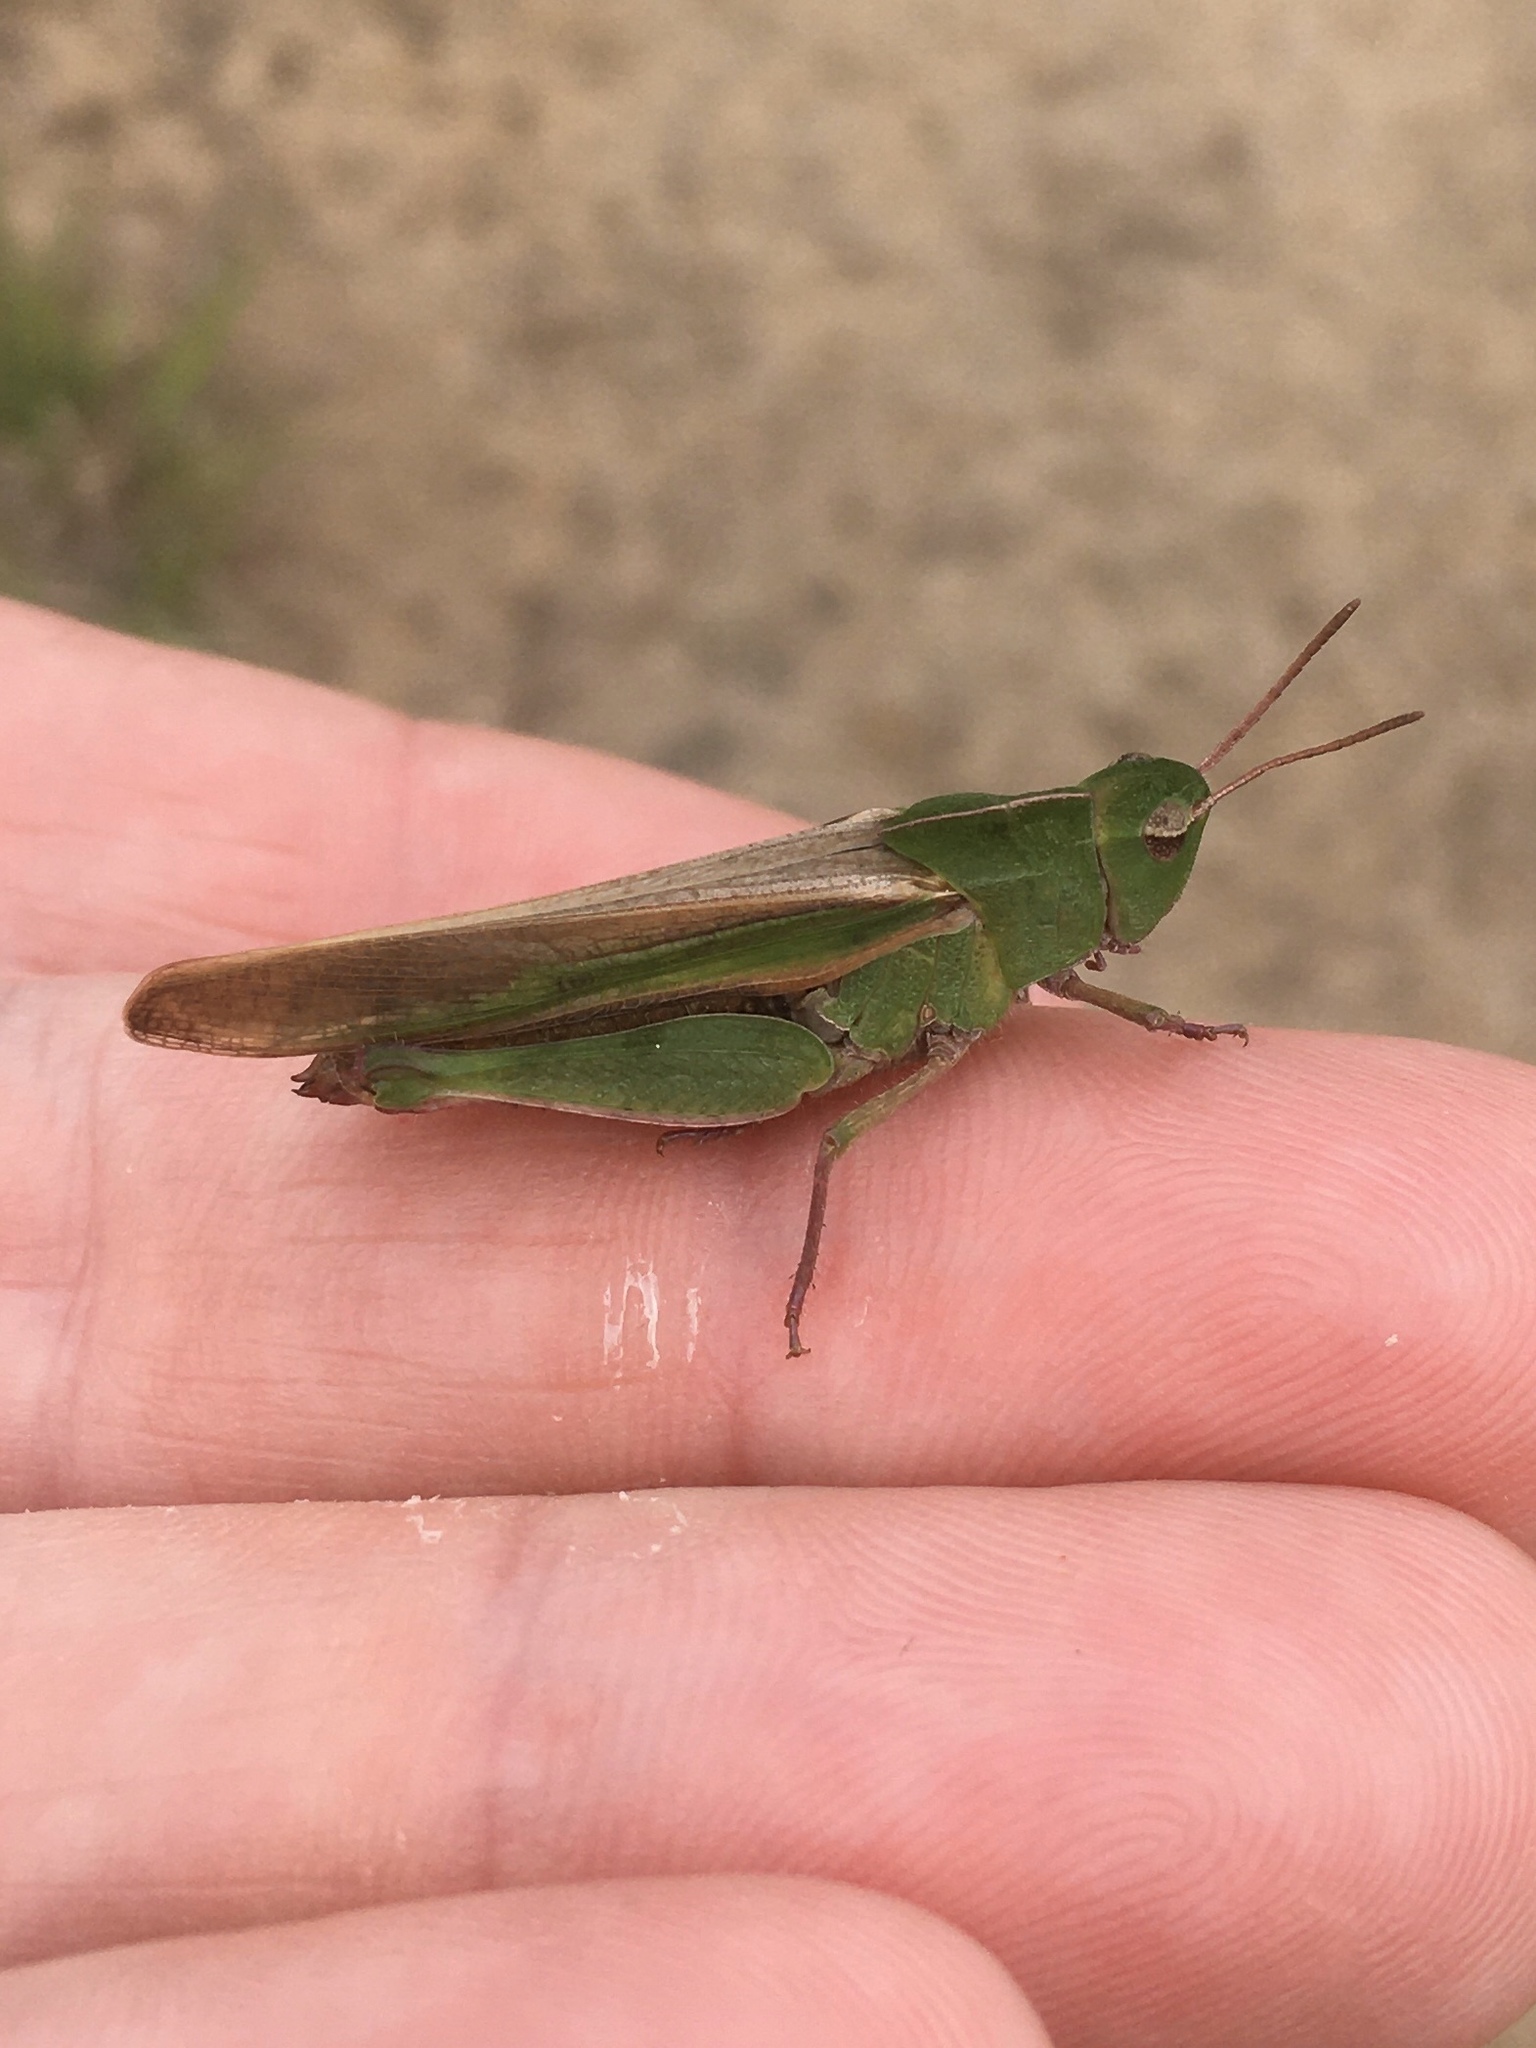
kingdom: Animalia
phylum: Arthropoda
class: Insecta
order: Orthoptera
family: Acrididae
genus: Chortophaga
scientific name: Chortophaga viridifasciata
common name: Green-striped grasshopper
